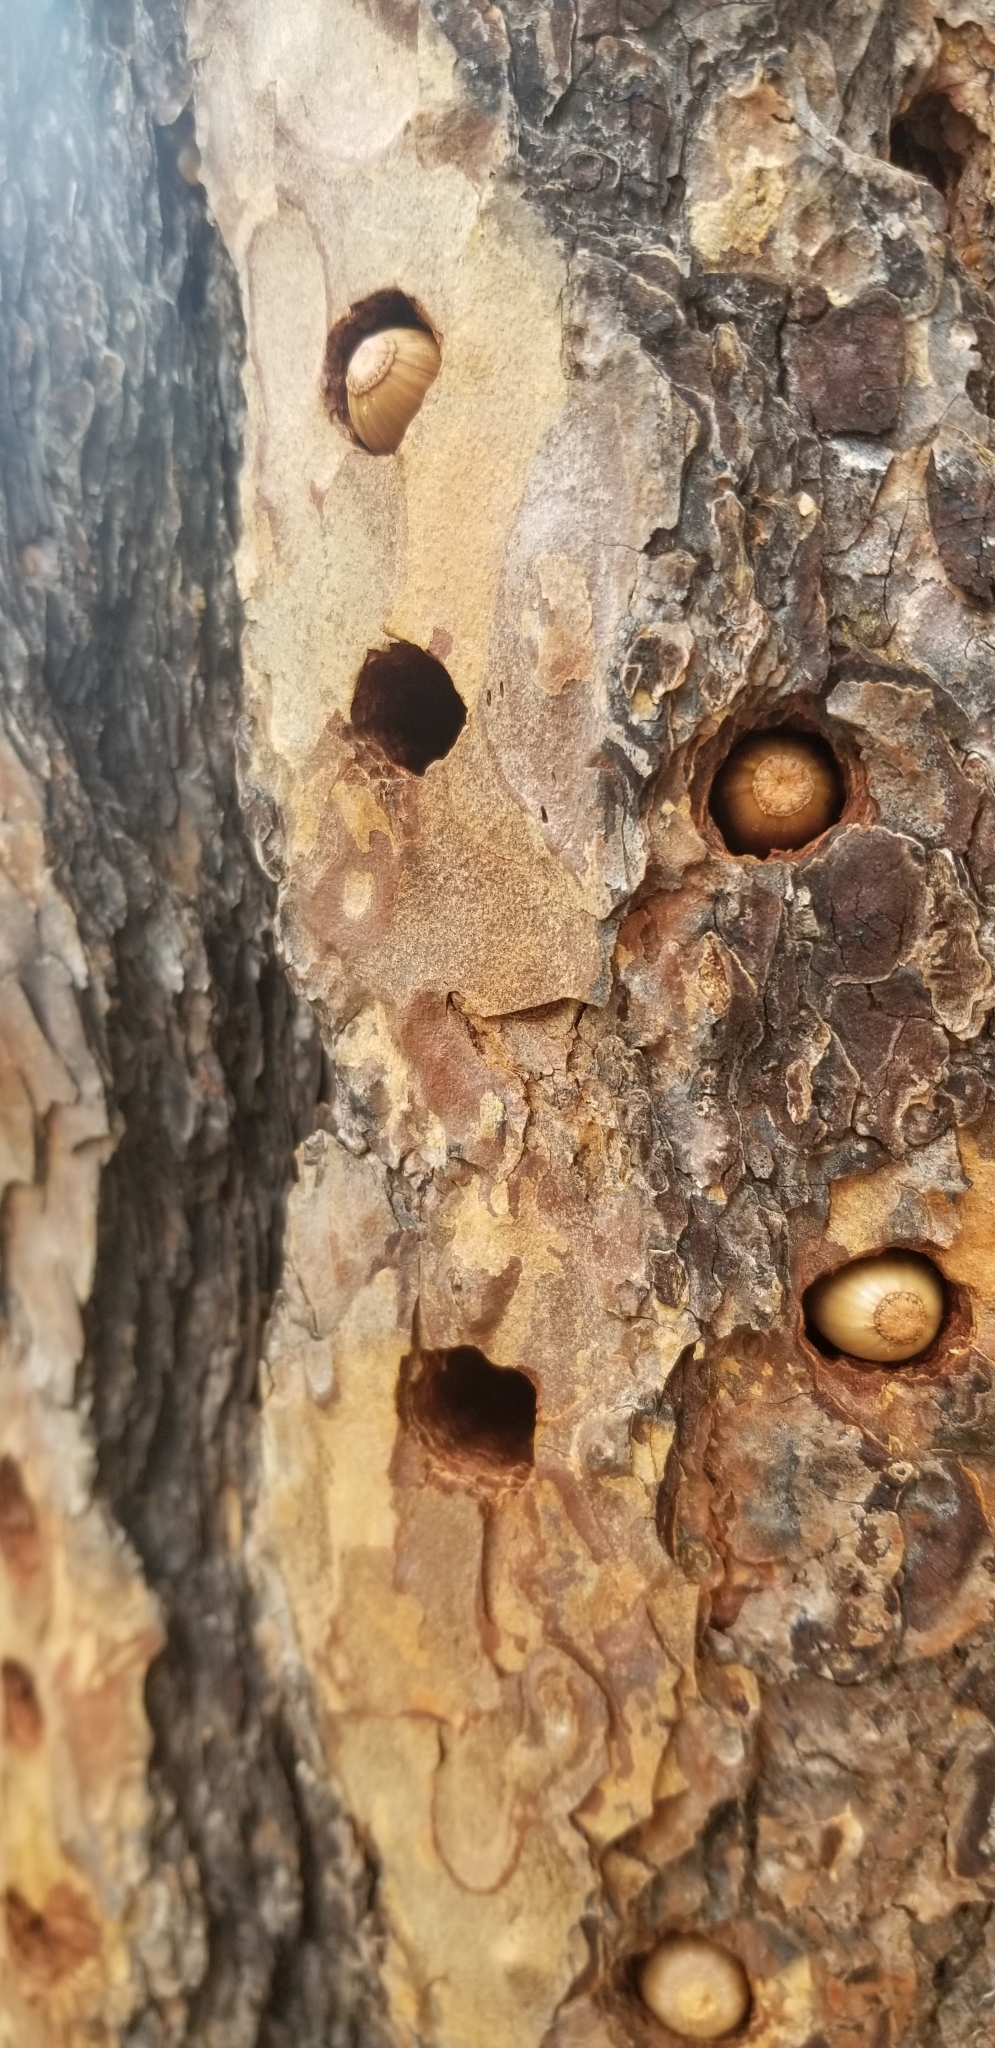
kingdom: Animalia
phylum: Chordata
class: Aves
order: Piciformes
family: Picidae
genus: Melanerpes
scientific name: Melanerpes formicivorus
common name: Acorn woodpecker
